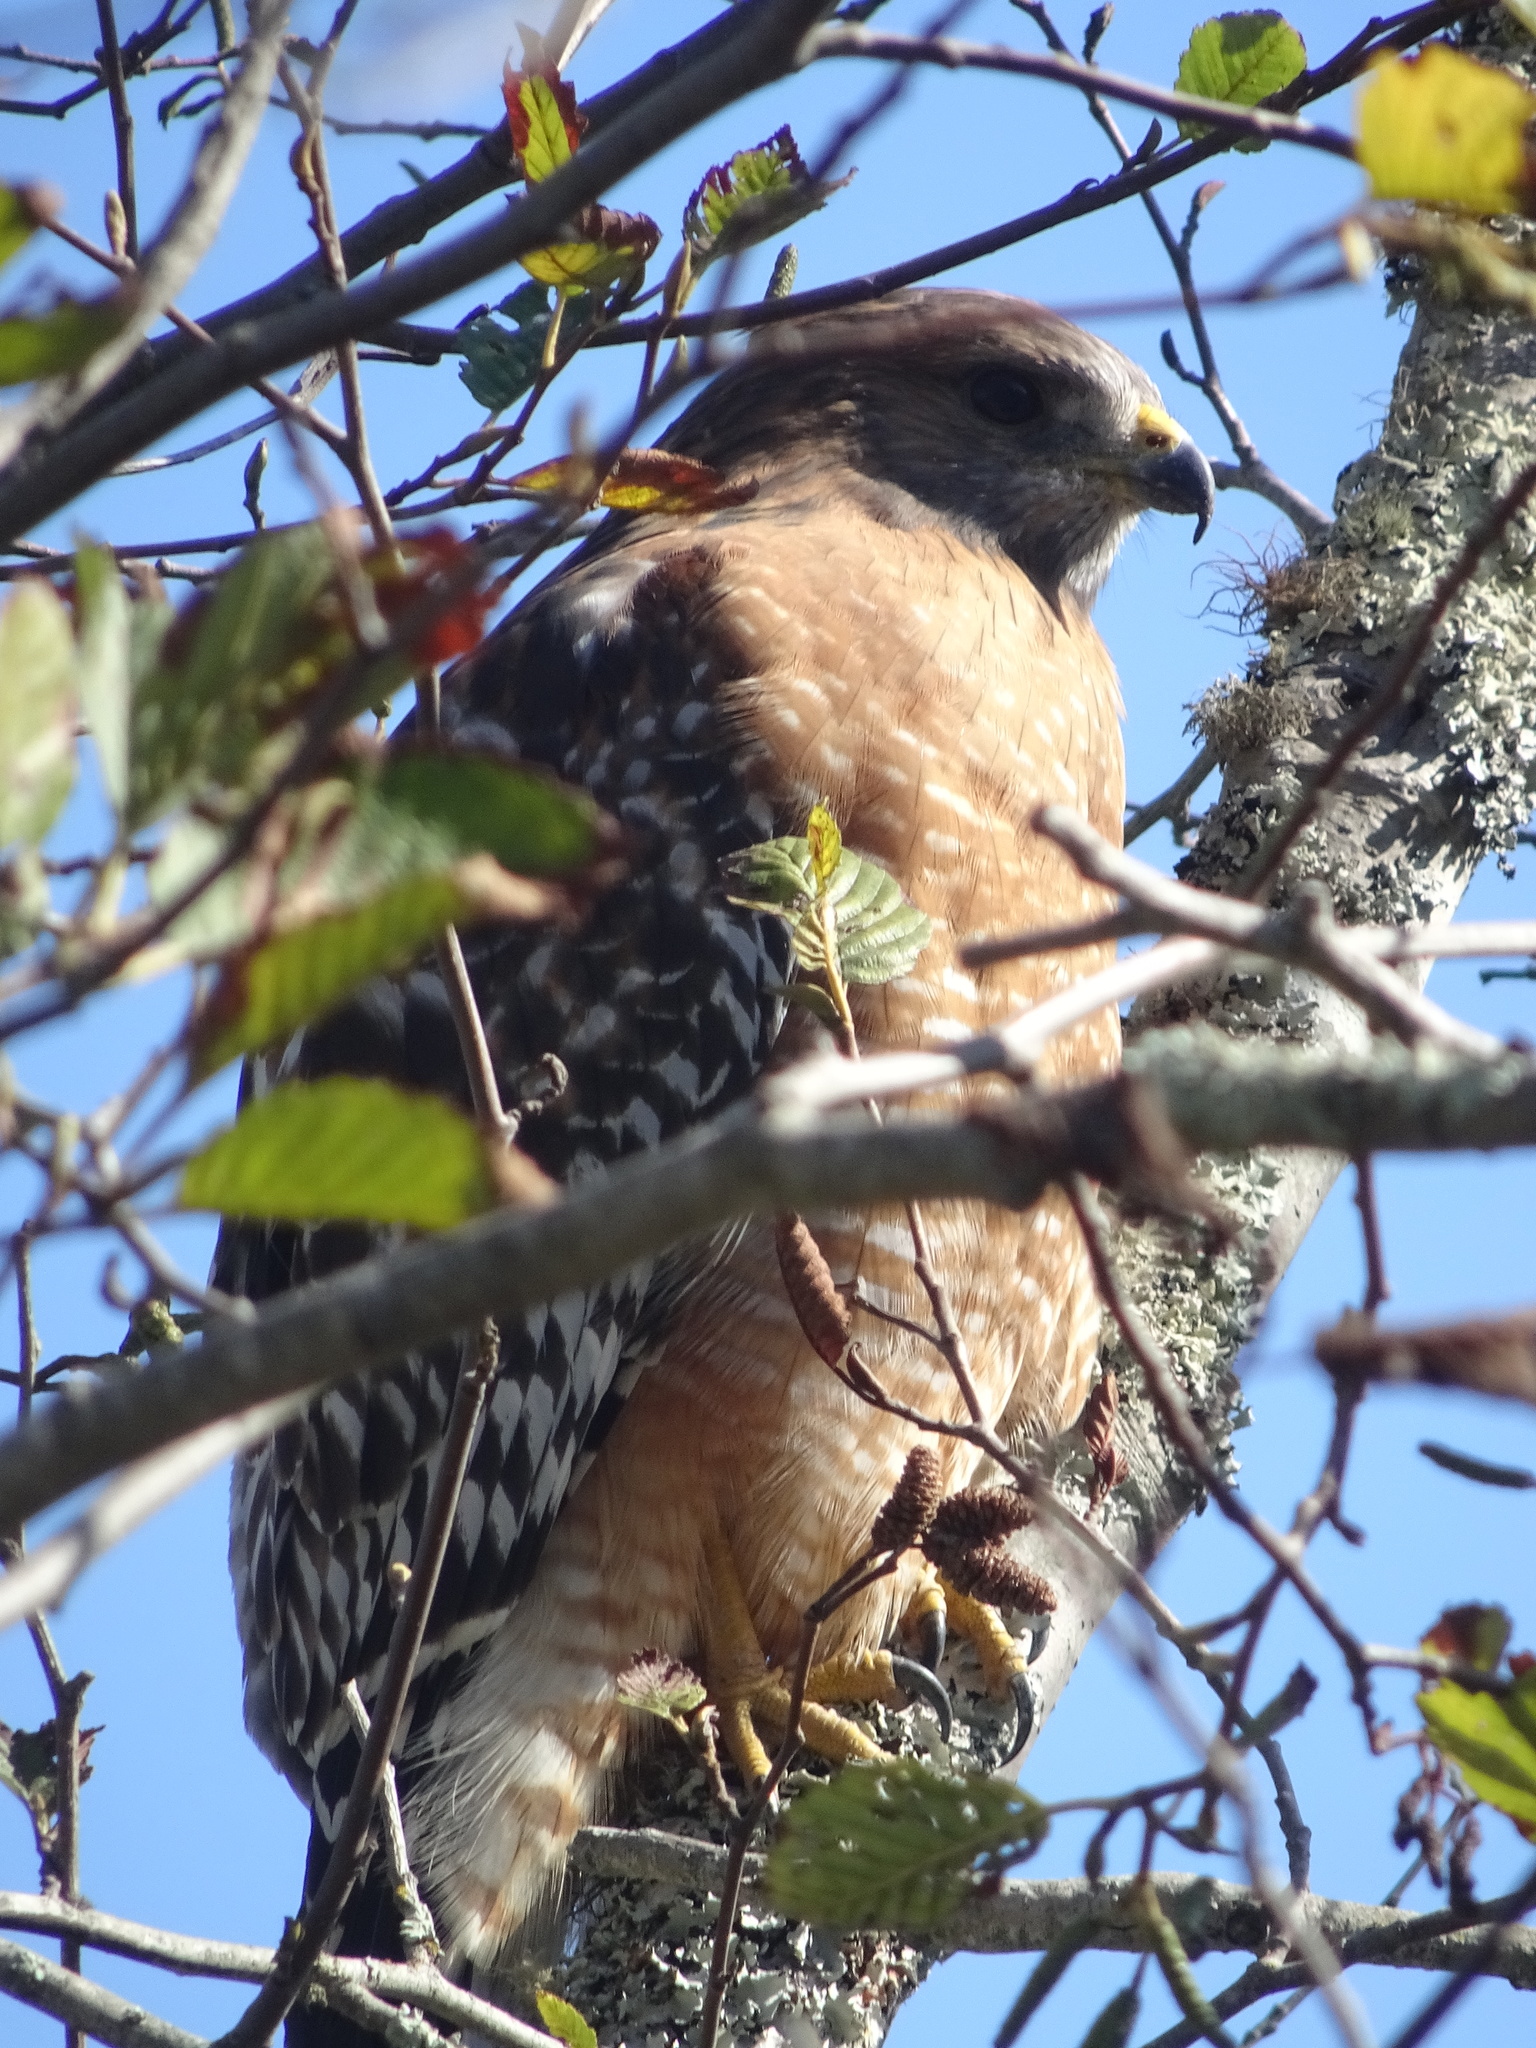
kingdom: Animalia
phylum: Chordata
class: Aves
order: Accipitriformes
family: Accipitridae
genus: Buteo
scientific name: Buteo lineatus
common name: Red-shouldered hawk
